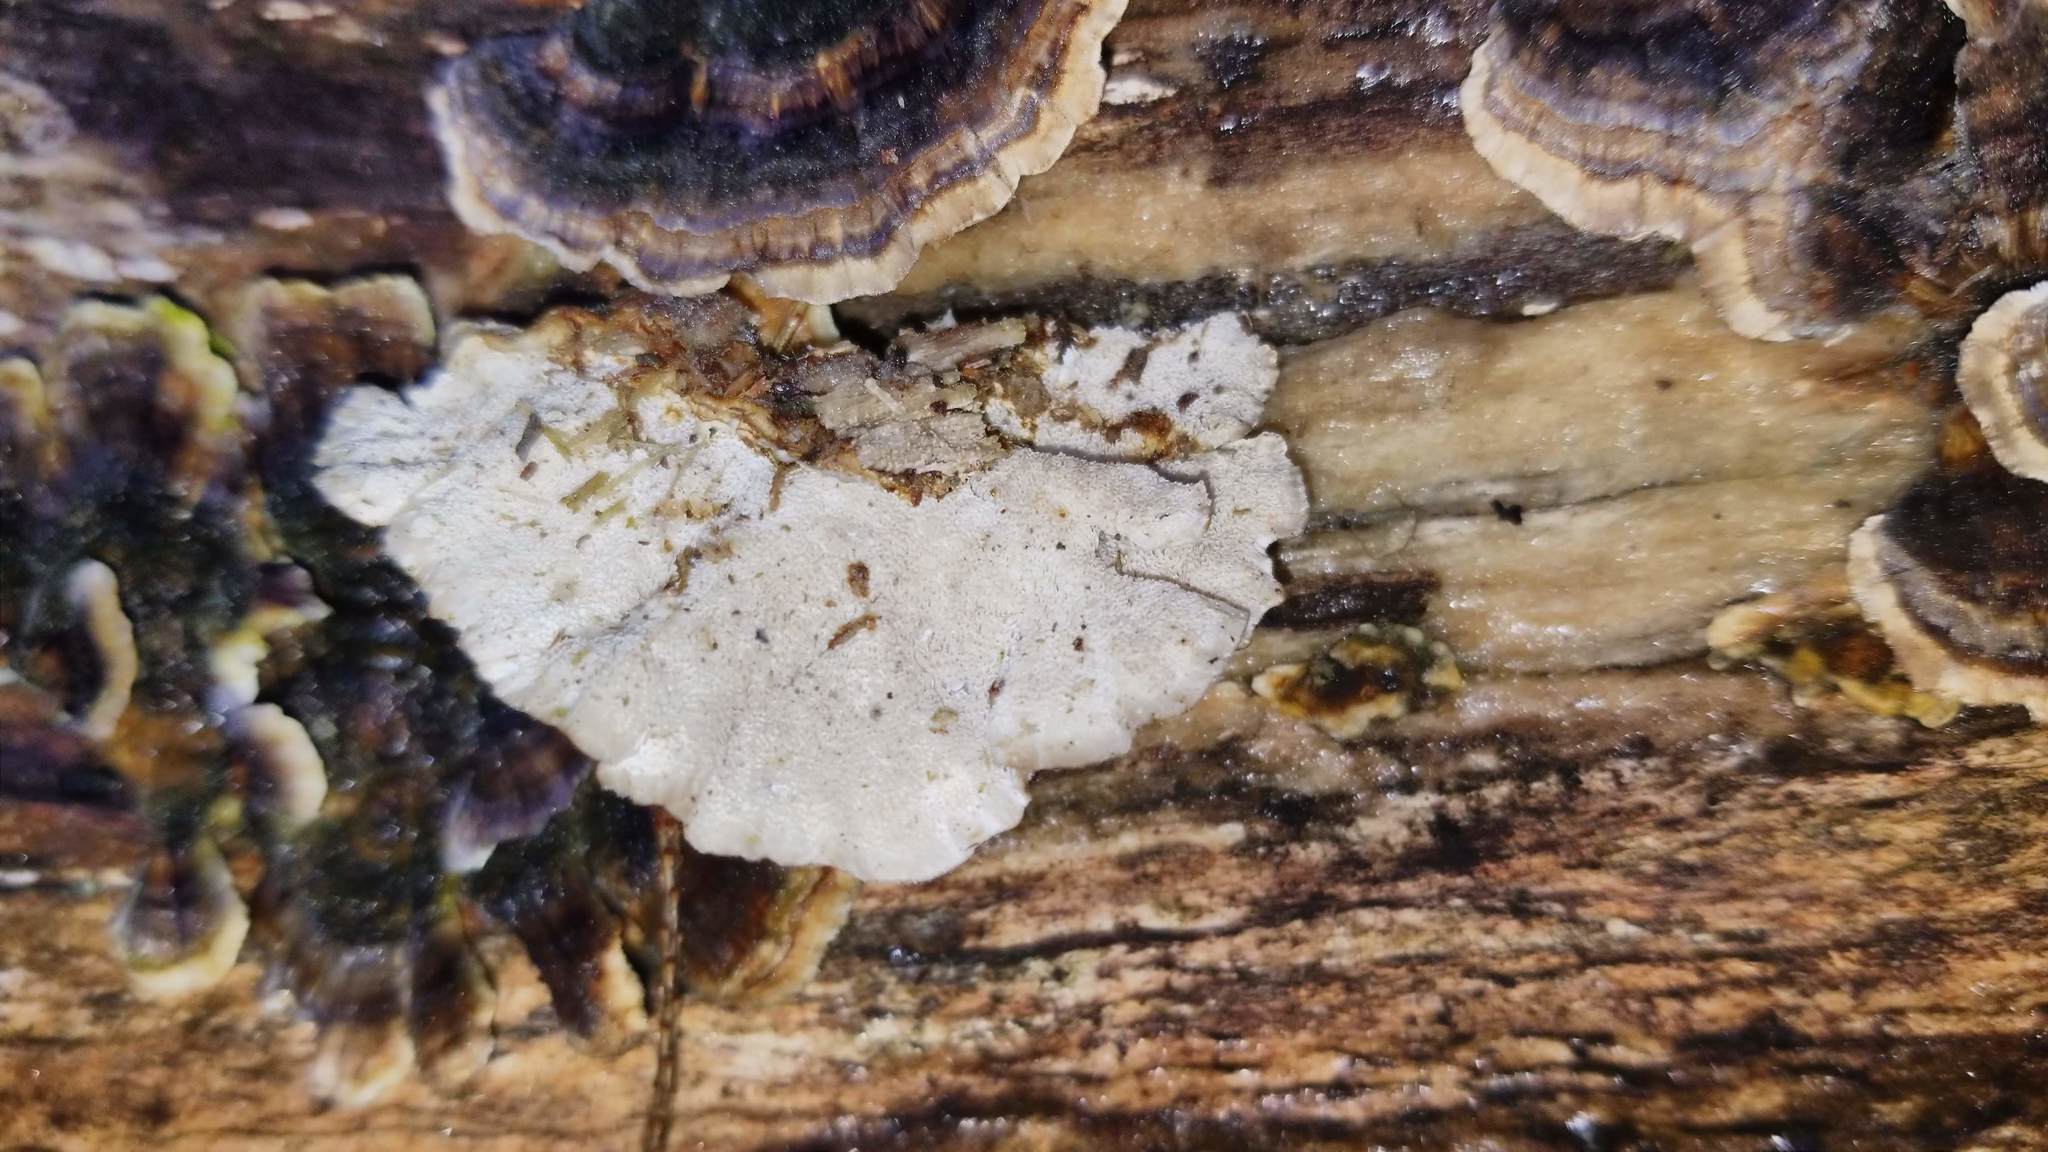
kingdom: Fungi
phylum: Basidiomycota
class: Agaricomycetes
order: Polyporales
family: Polyporaceae
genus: Trametes
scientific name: Trametes versicolor
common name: Turkeytail
